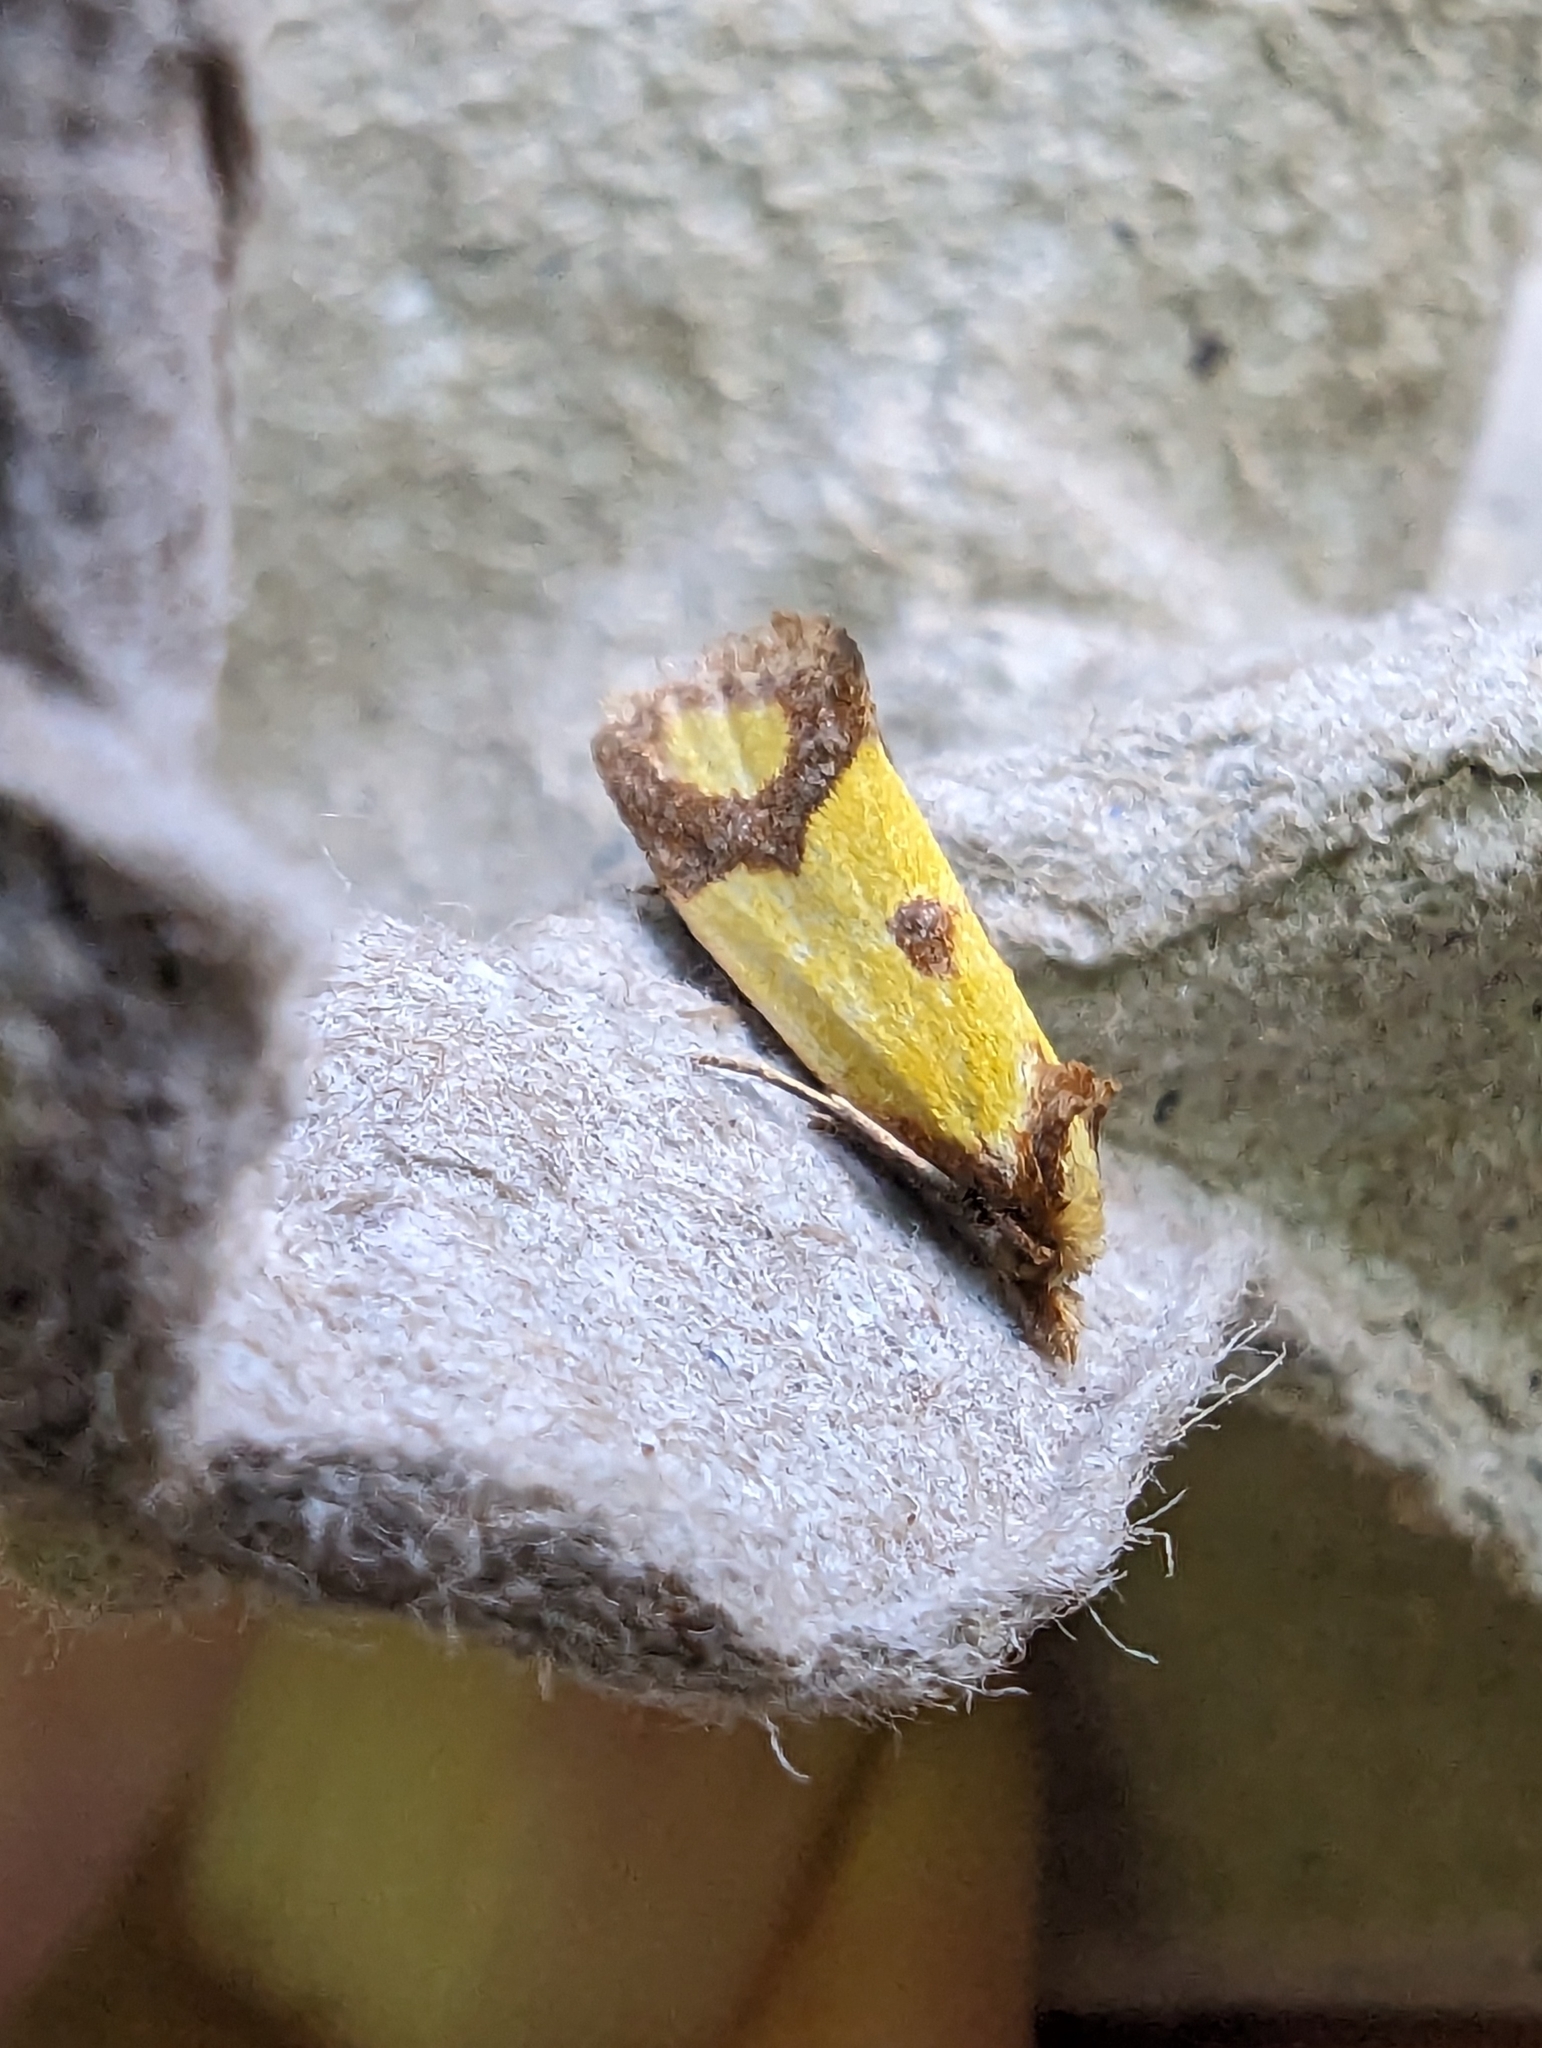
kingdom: Animalia
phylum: Arthropoda
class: Insecta
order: Lepidoptera
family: Tortricidae
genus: Agapeta
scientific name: Agapeta zoegana
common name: Sulfur knapweed root moth
